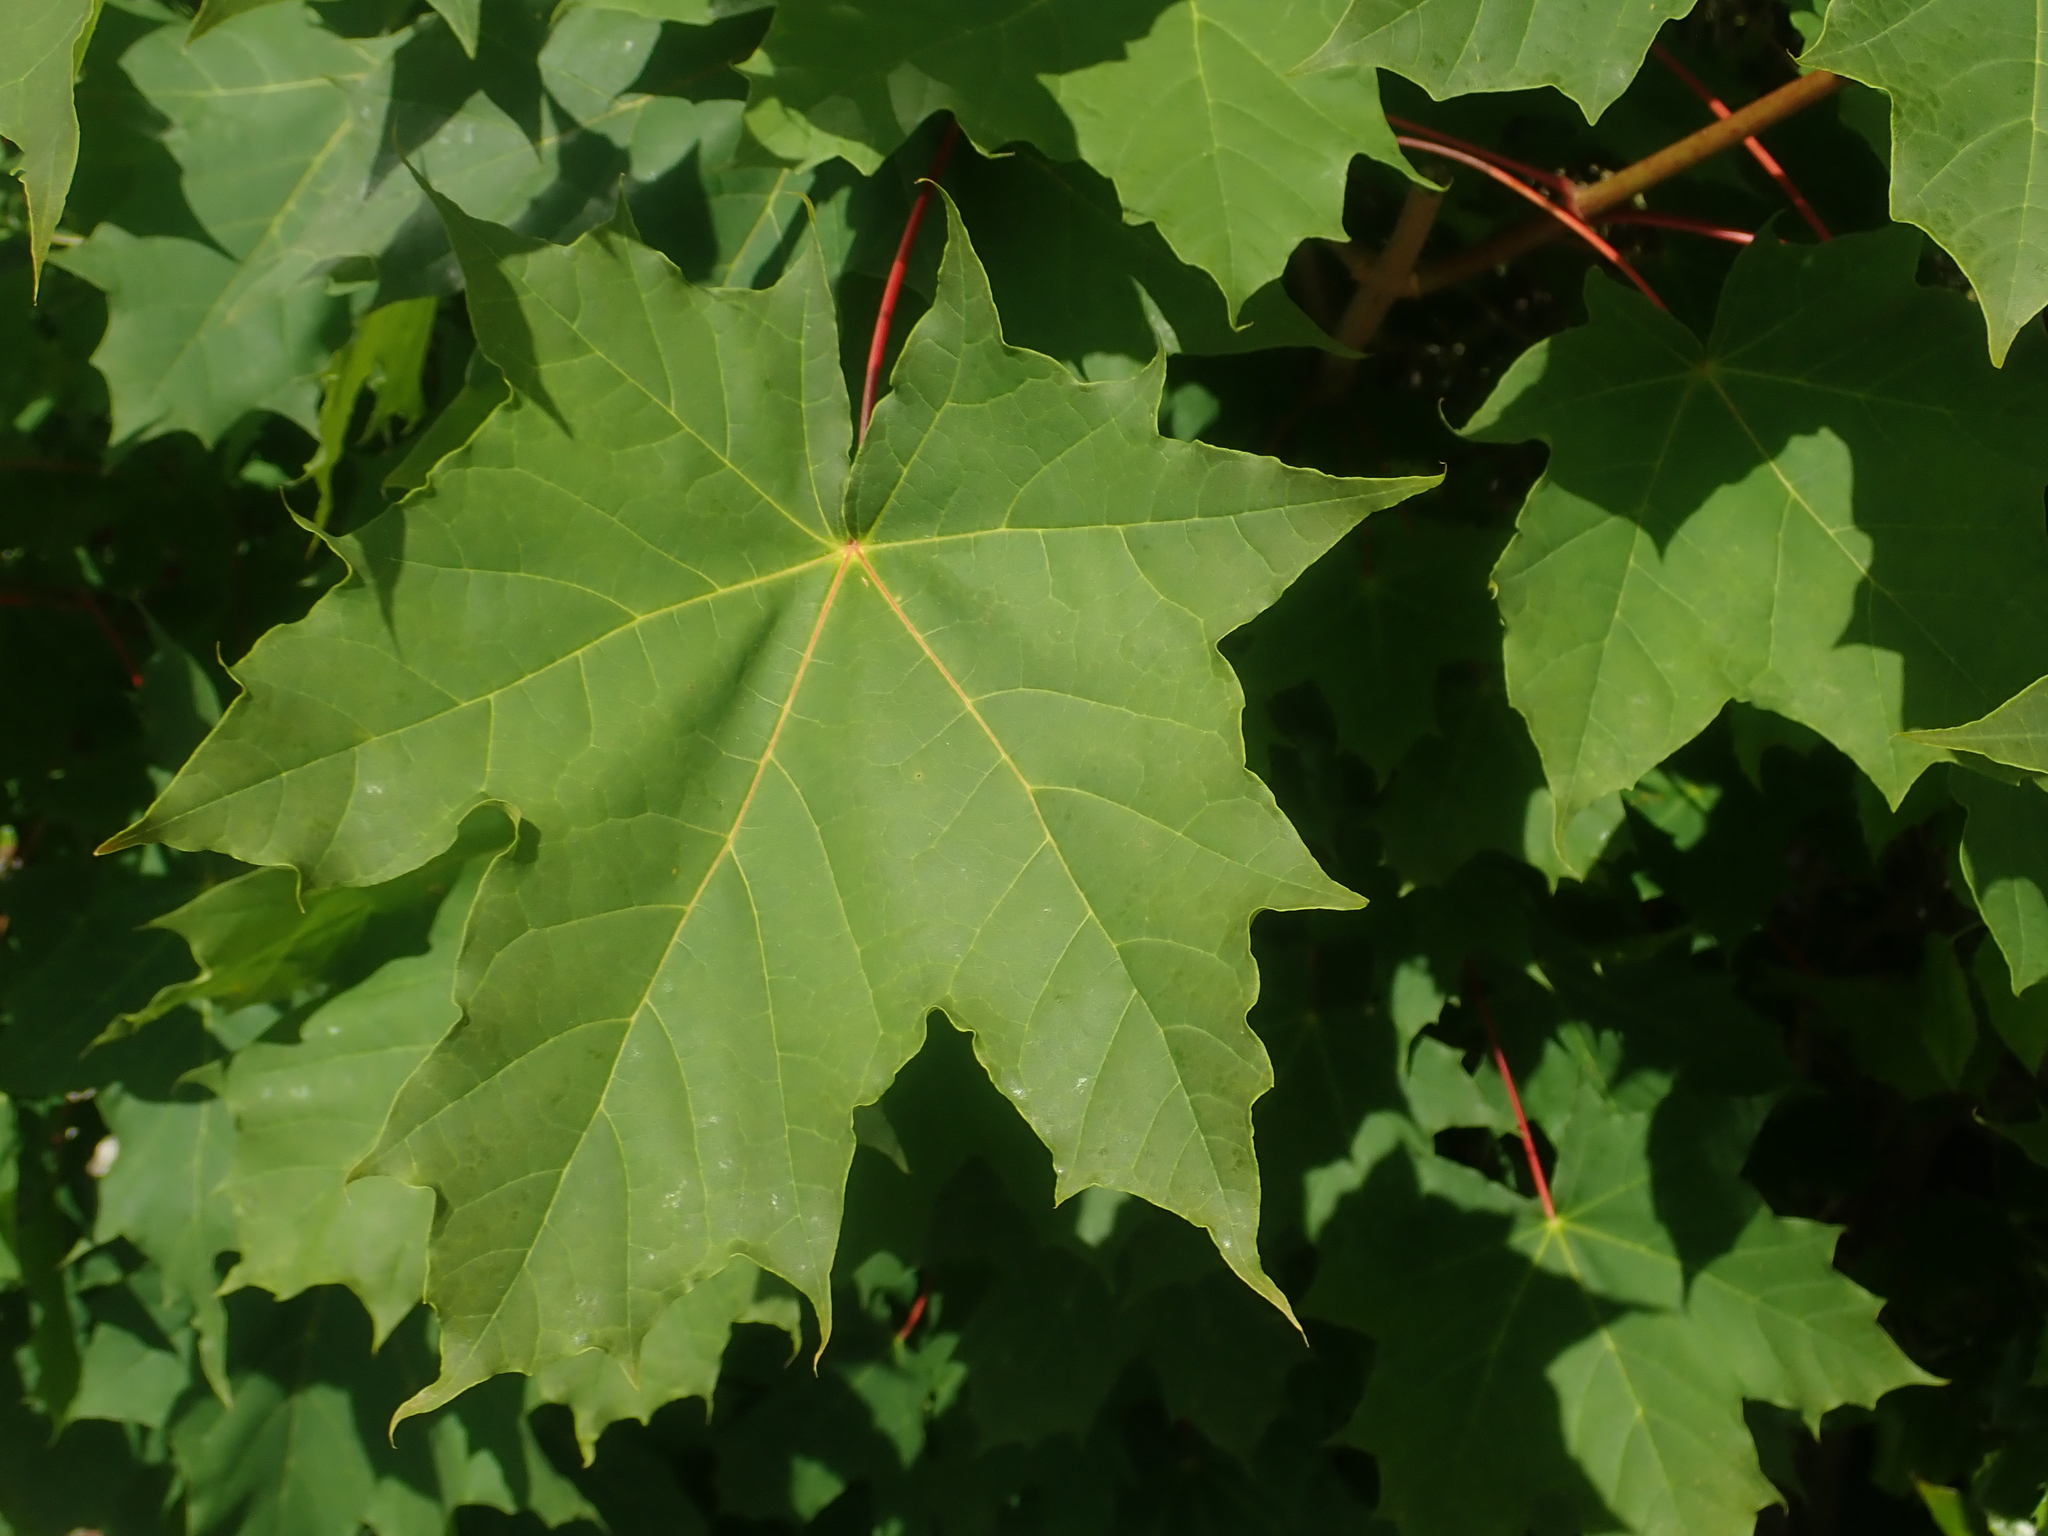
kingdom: Plantae
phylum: Tracheophyta
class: Magnoliopsida
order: Sapindales
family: Sapindaceae
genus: Acer
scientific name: Acer platanoides
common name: Norway maple
